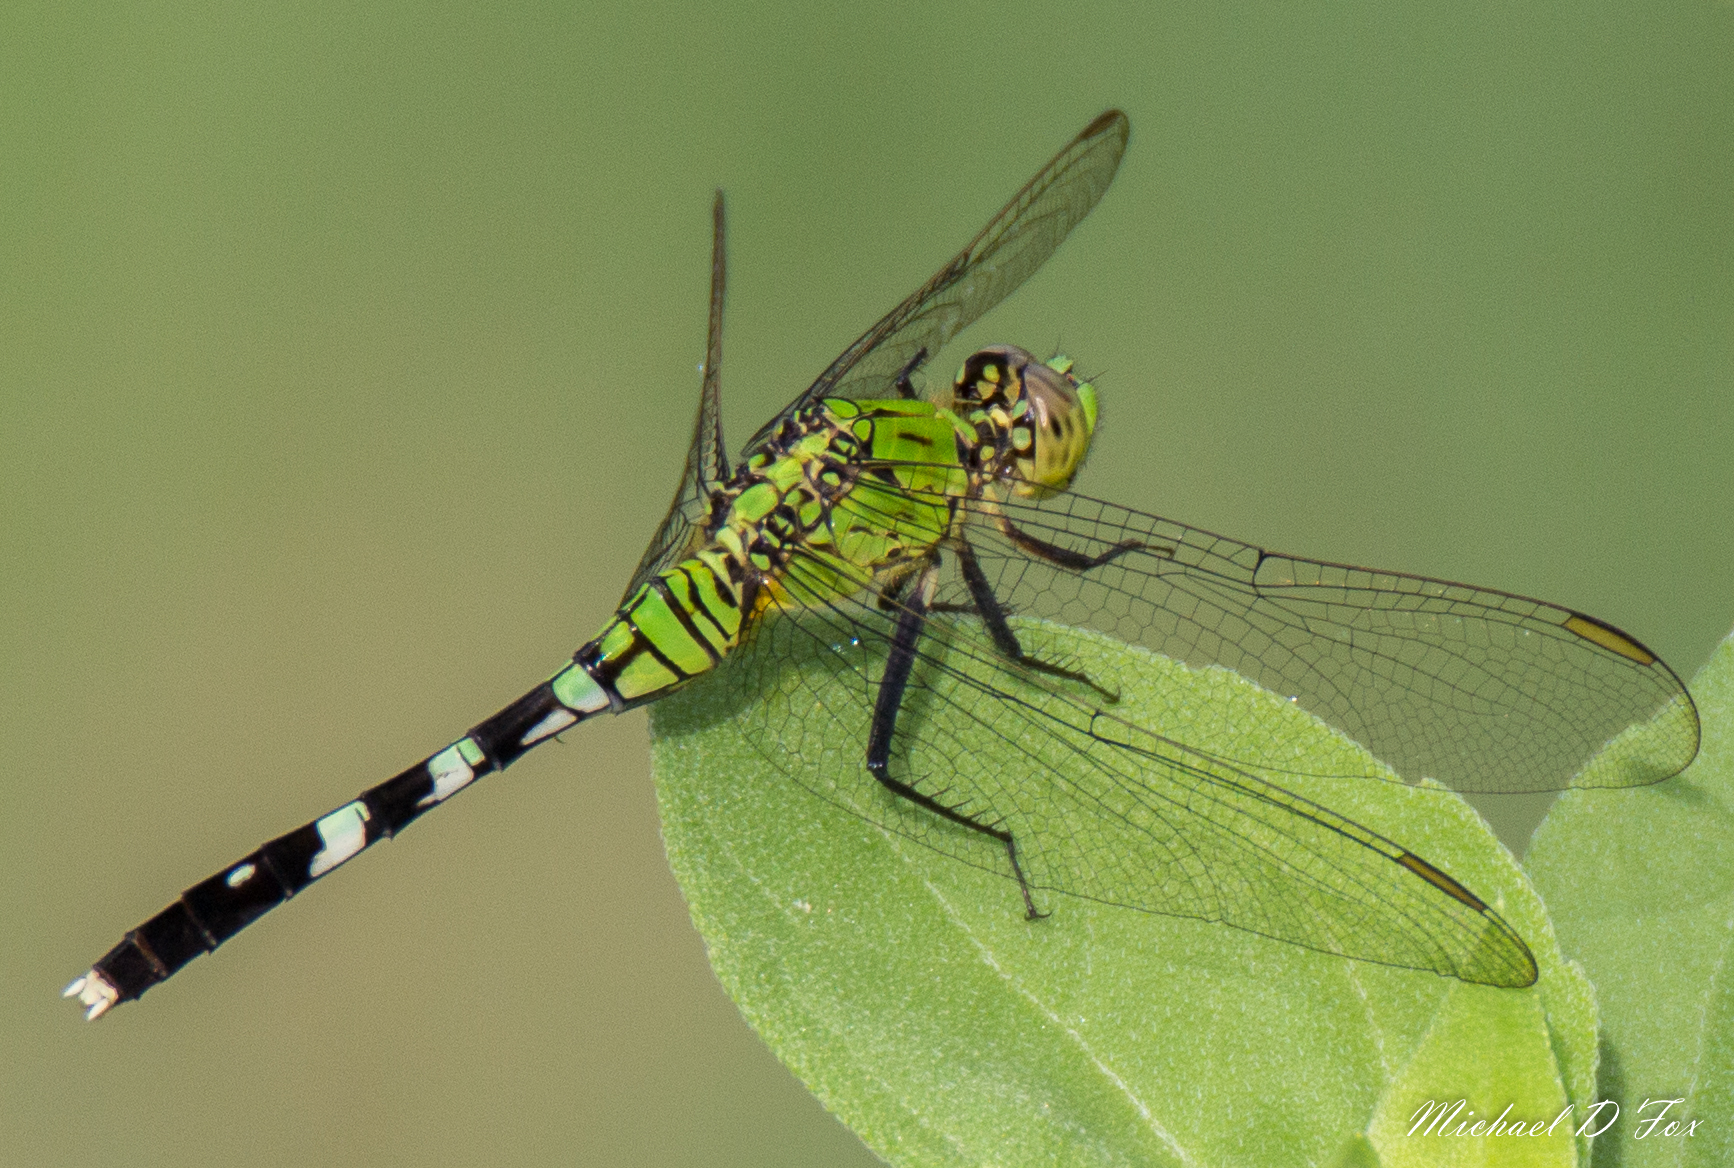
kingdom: Animalia
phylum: Arthropoda
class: Insecta
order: Odonata
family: Libellulidae
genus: Erythemis
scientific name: Erythemis simplicicollis
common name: Eastern pondhawk
